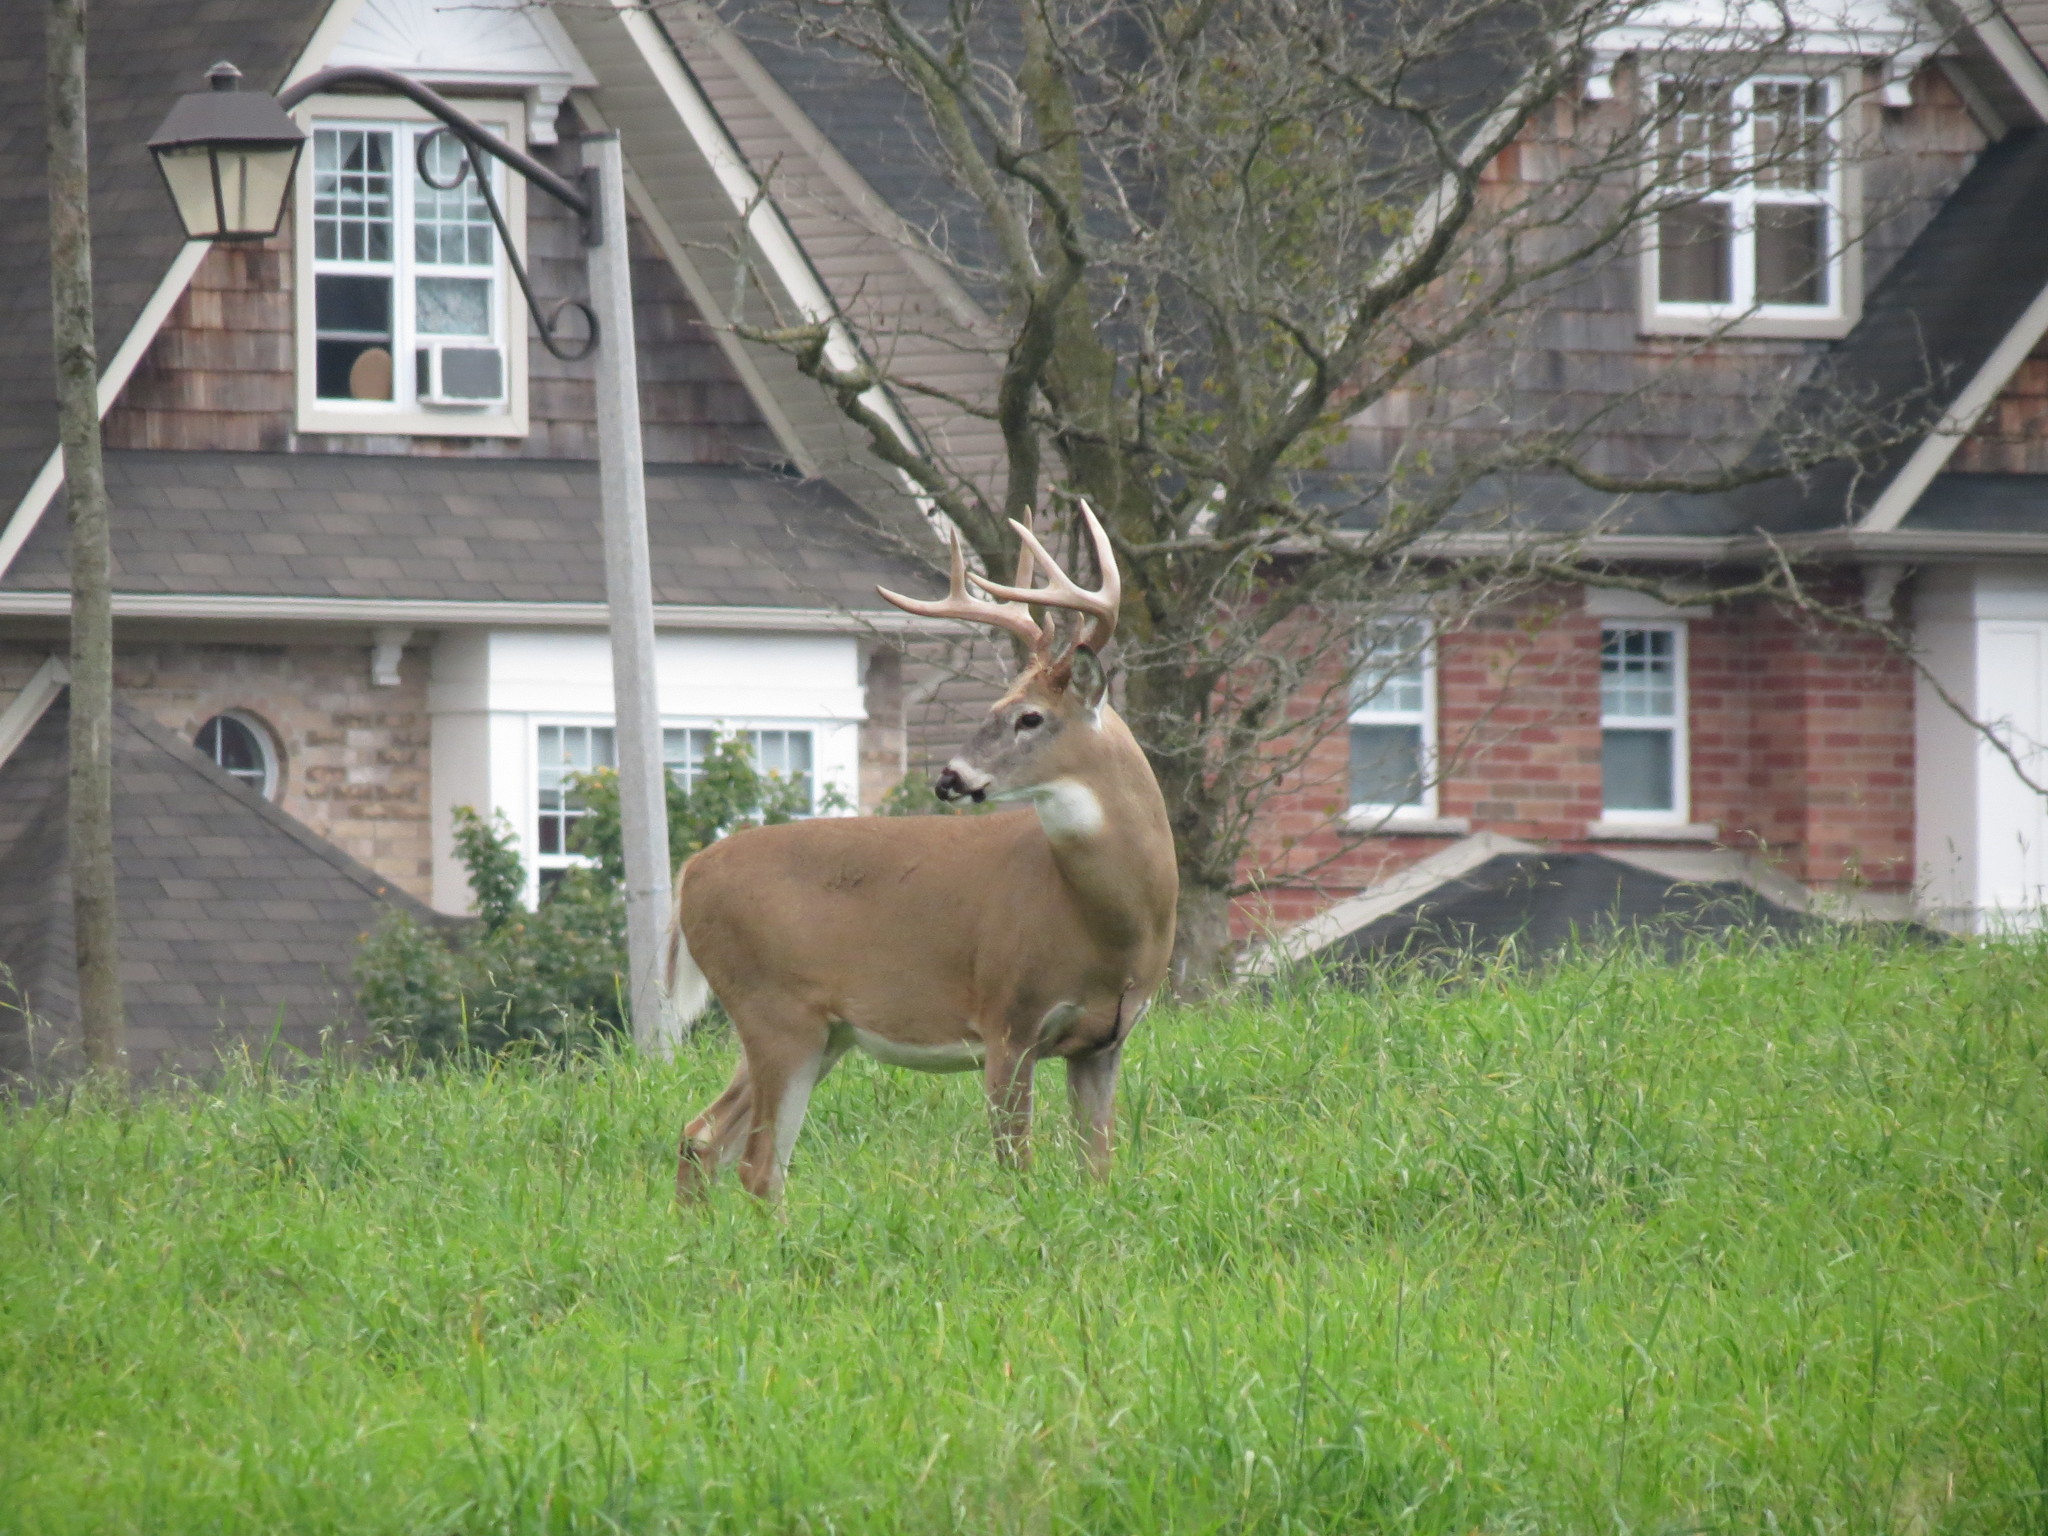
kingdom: Animalia
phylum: Chordata
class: Mammalia
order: Artiodactyla
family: Cervidae
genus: Odocoileus
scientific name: Odocoileus virginianus
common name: White-tailed deer
